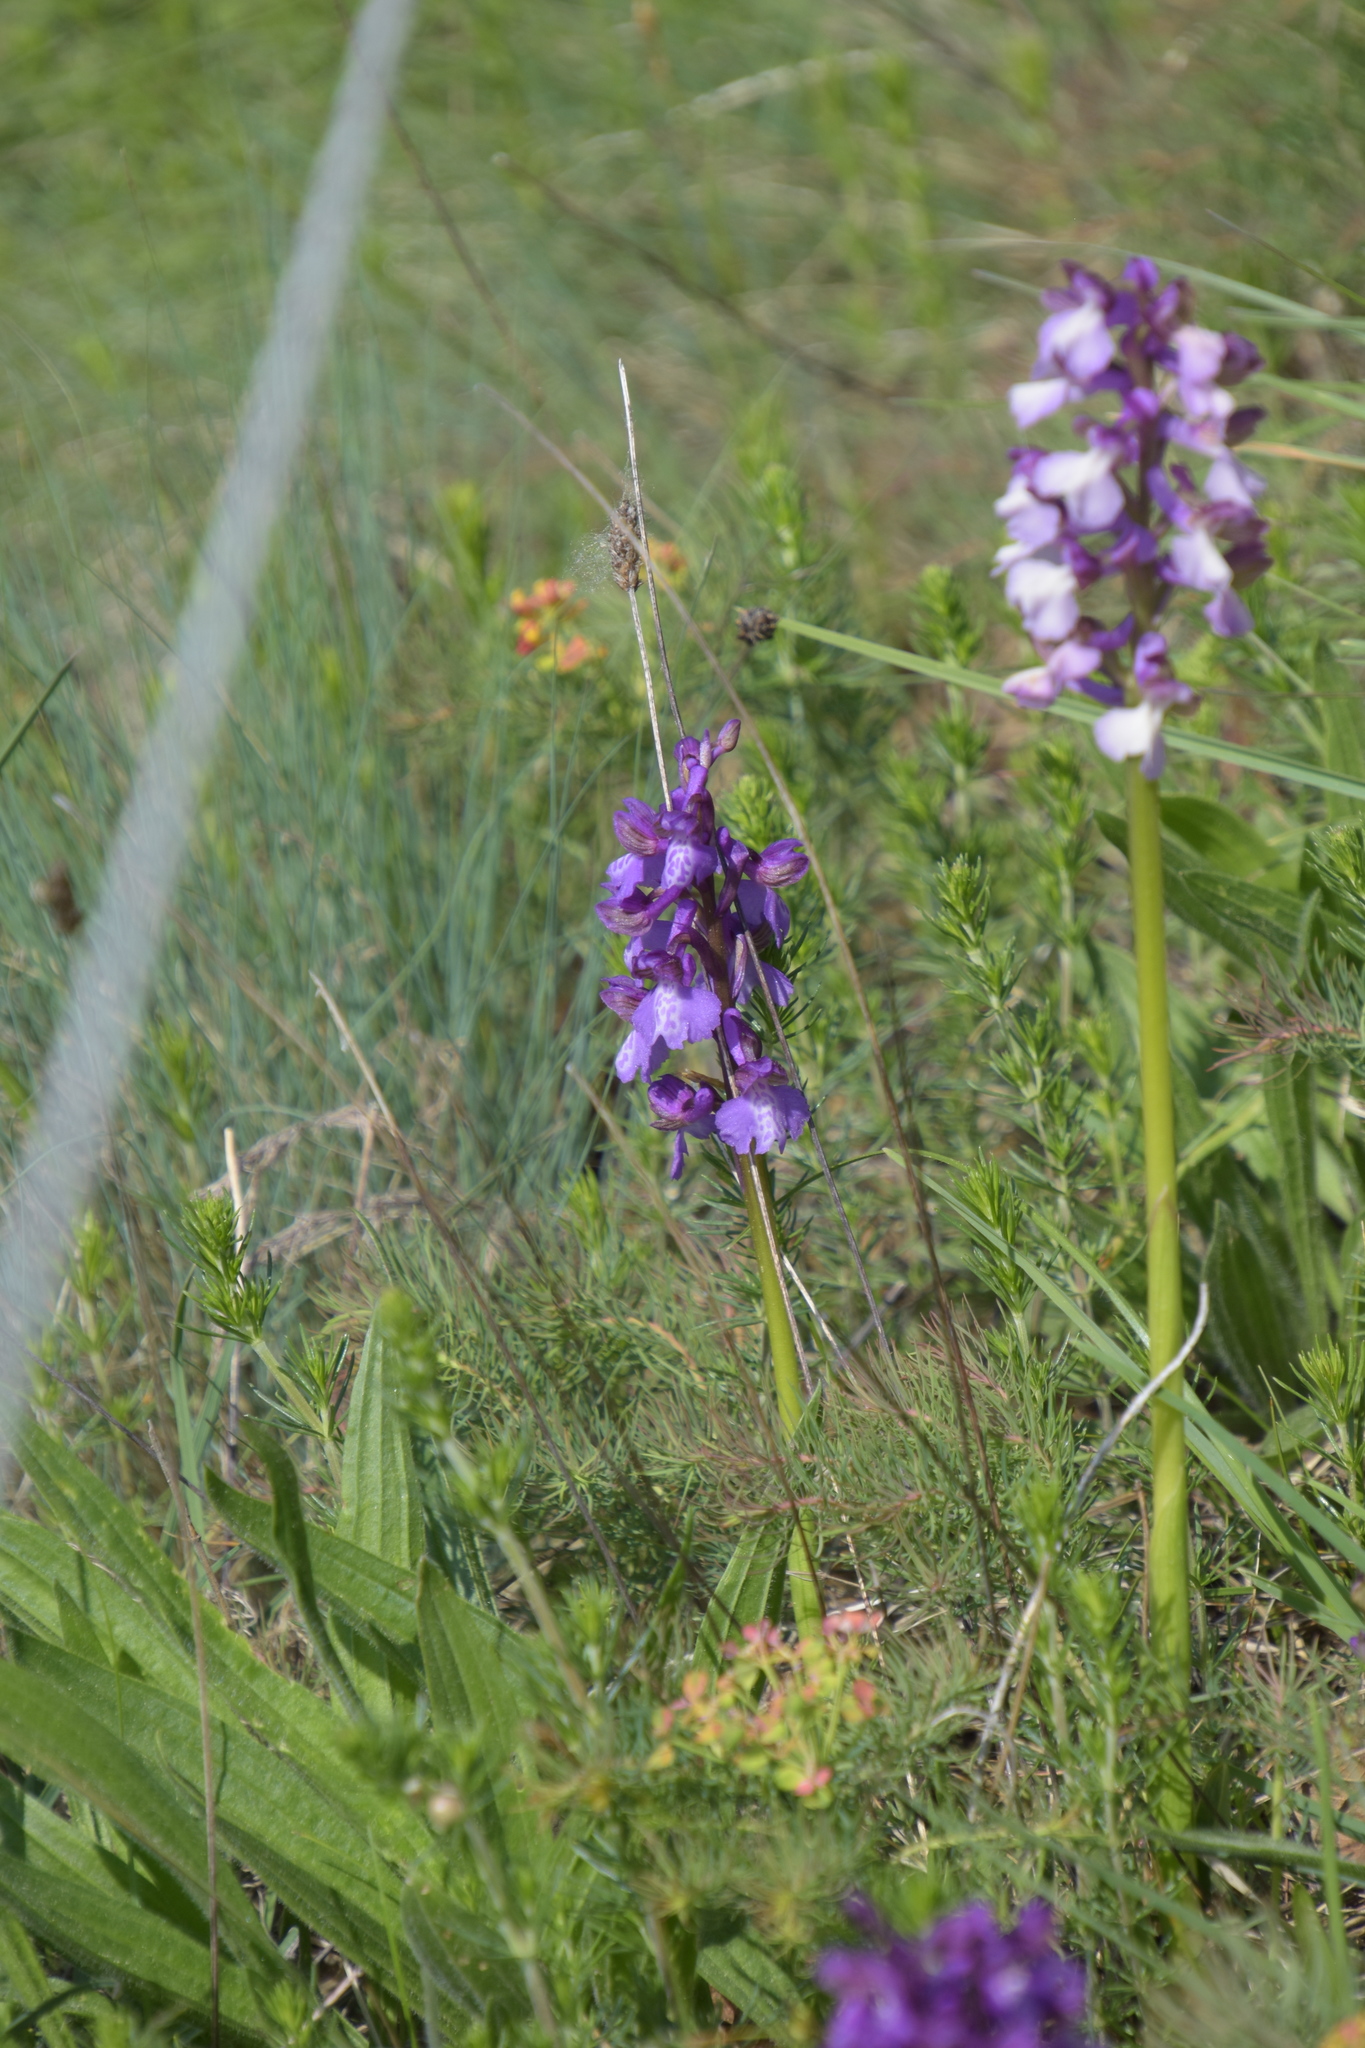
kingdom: Plantae
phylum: Tracheophyta
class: Liliopsida
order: Asparagales
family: Orchidaceae
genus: Anacamptis
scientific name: Anacamptis morio
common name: Green-winged orchid
